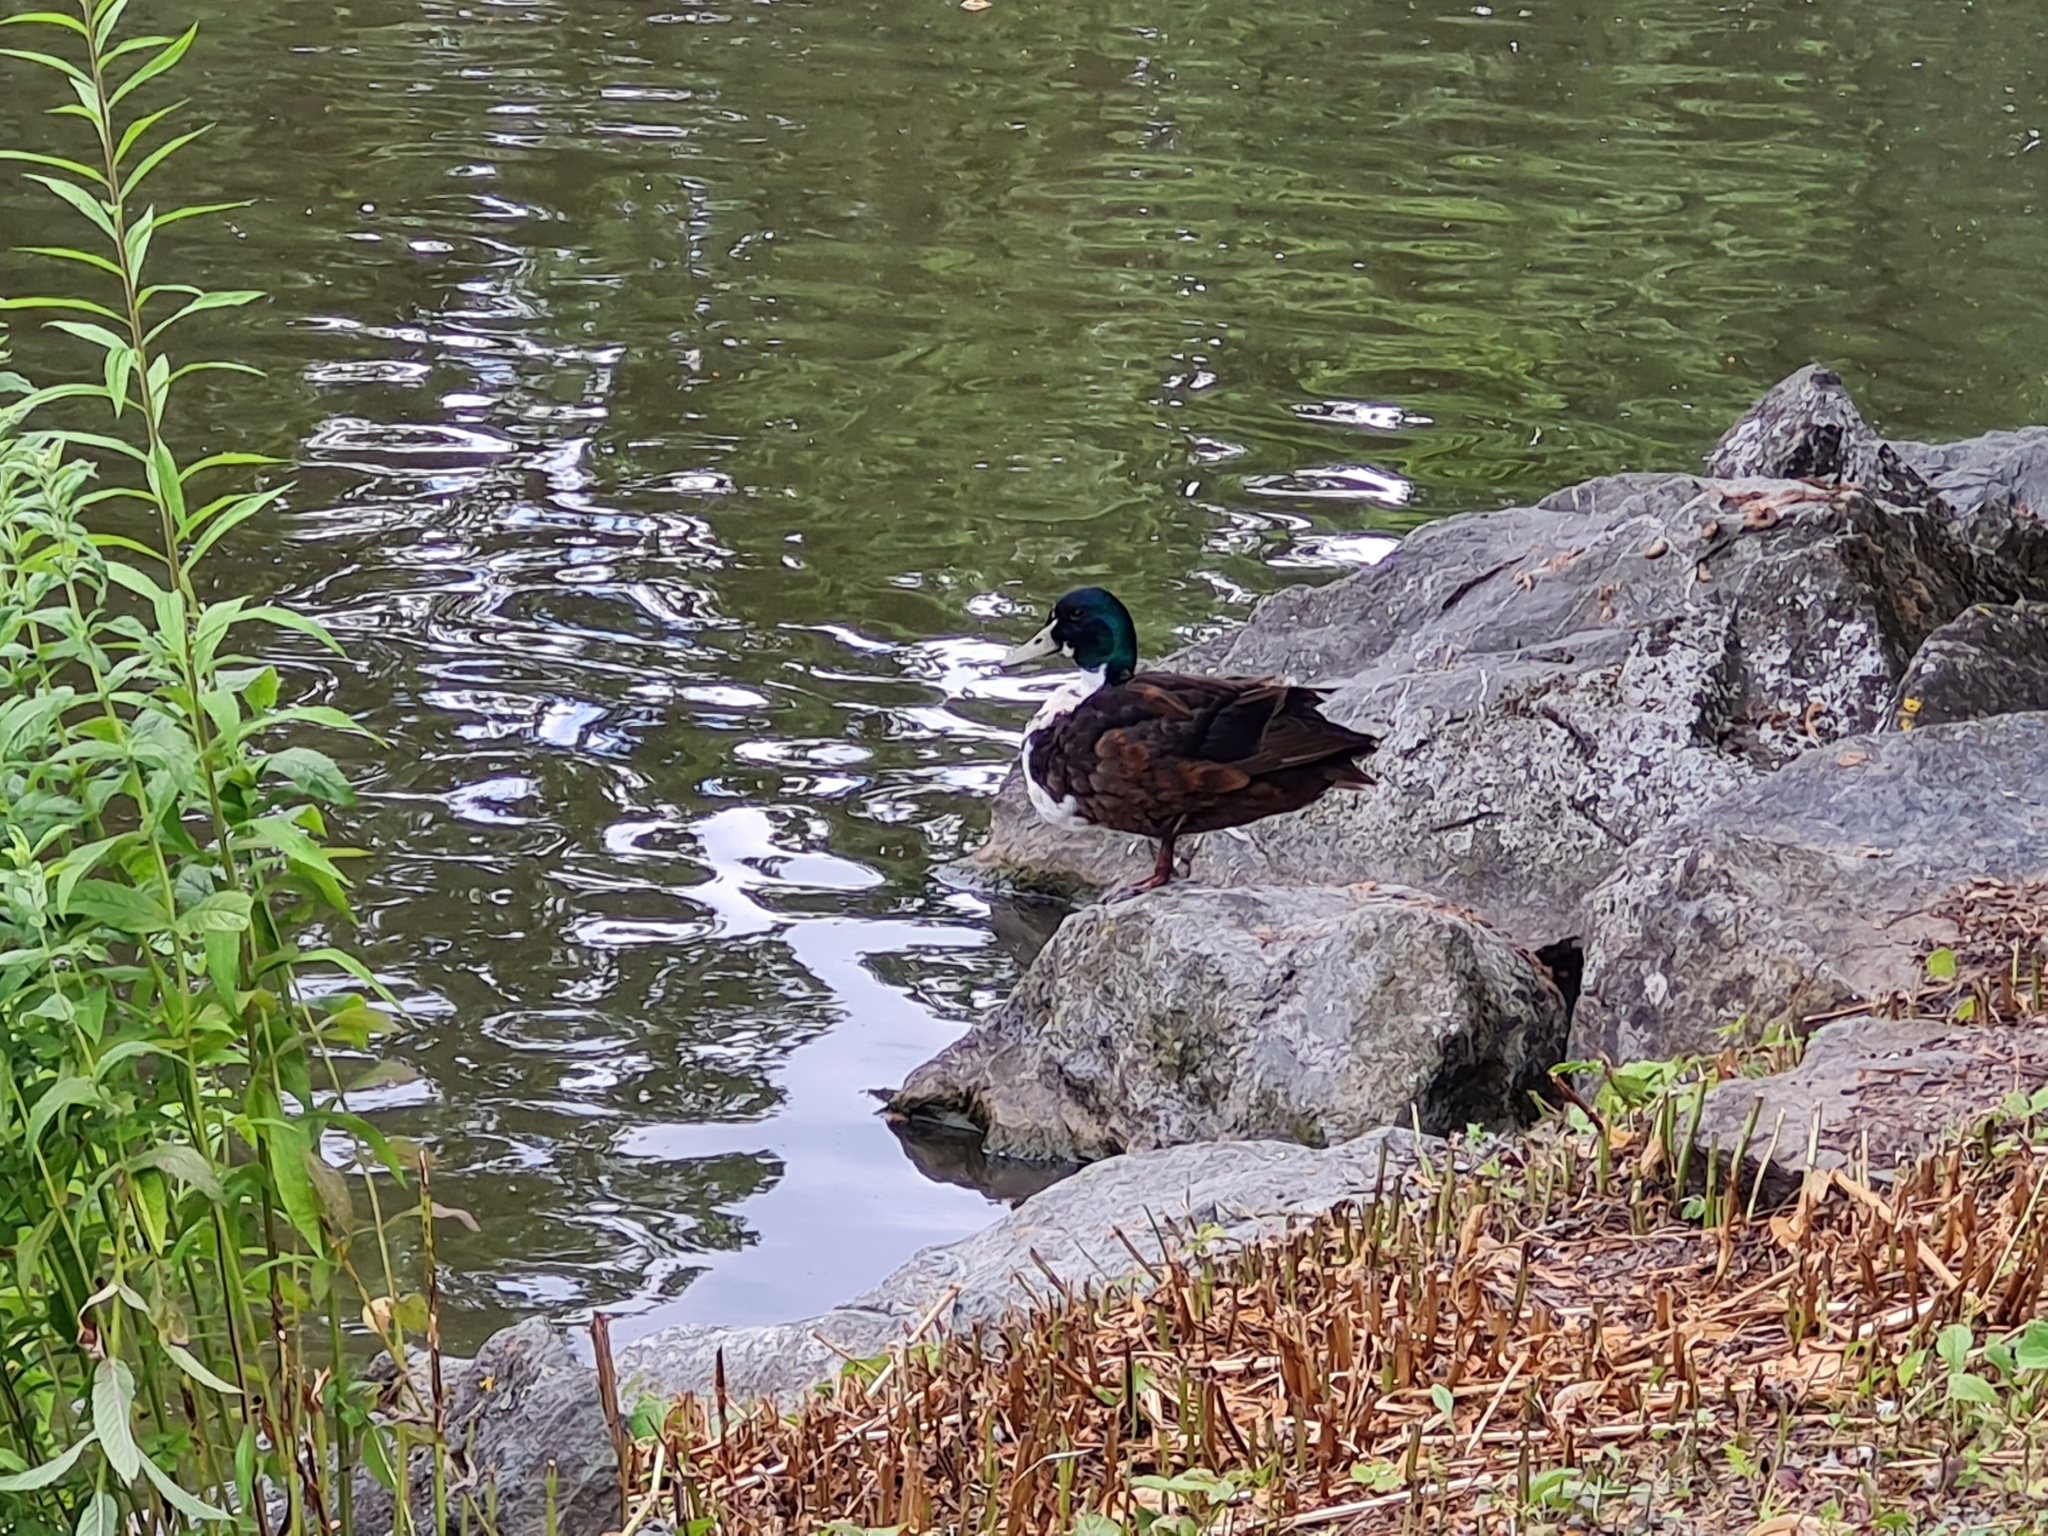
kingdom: Animalia
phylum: Chordata
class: Aves
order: Anseriformes
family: Anatidae
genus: Anas
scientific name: Anas platyrhynchos
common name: Mallard
